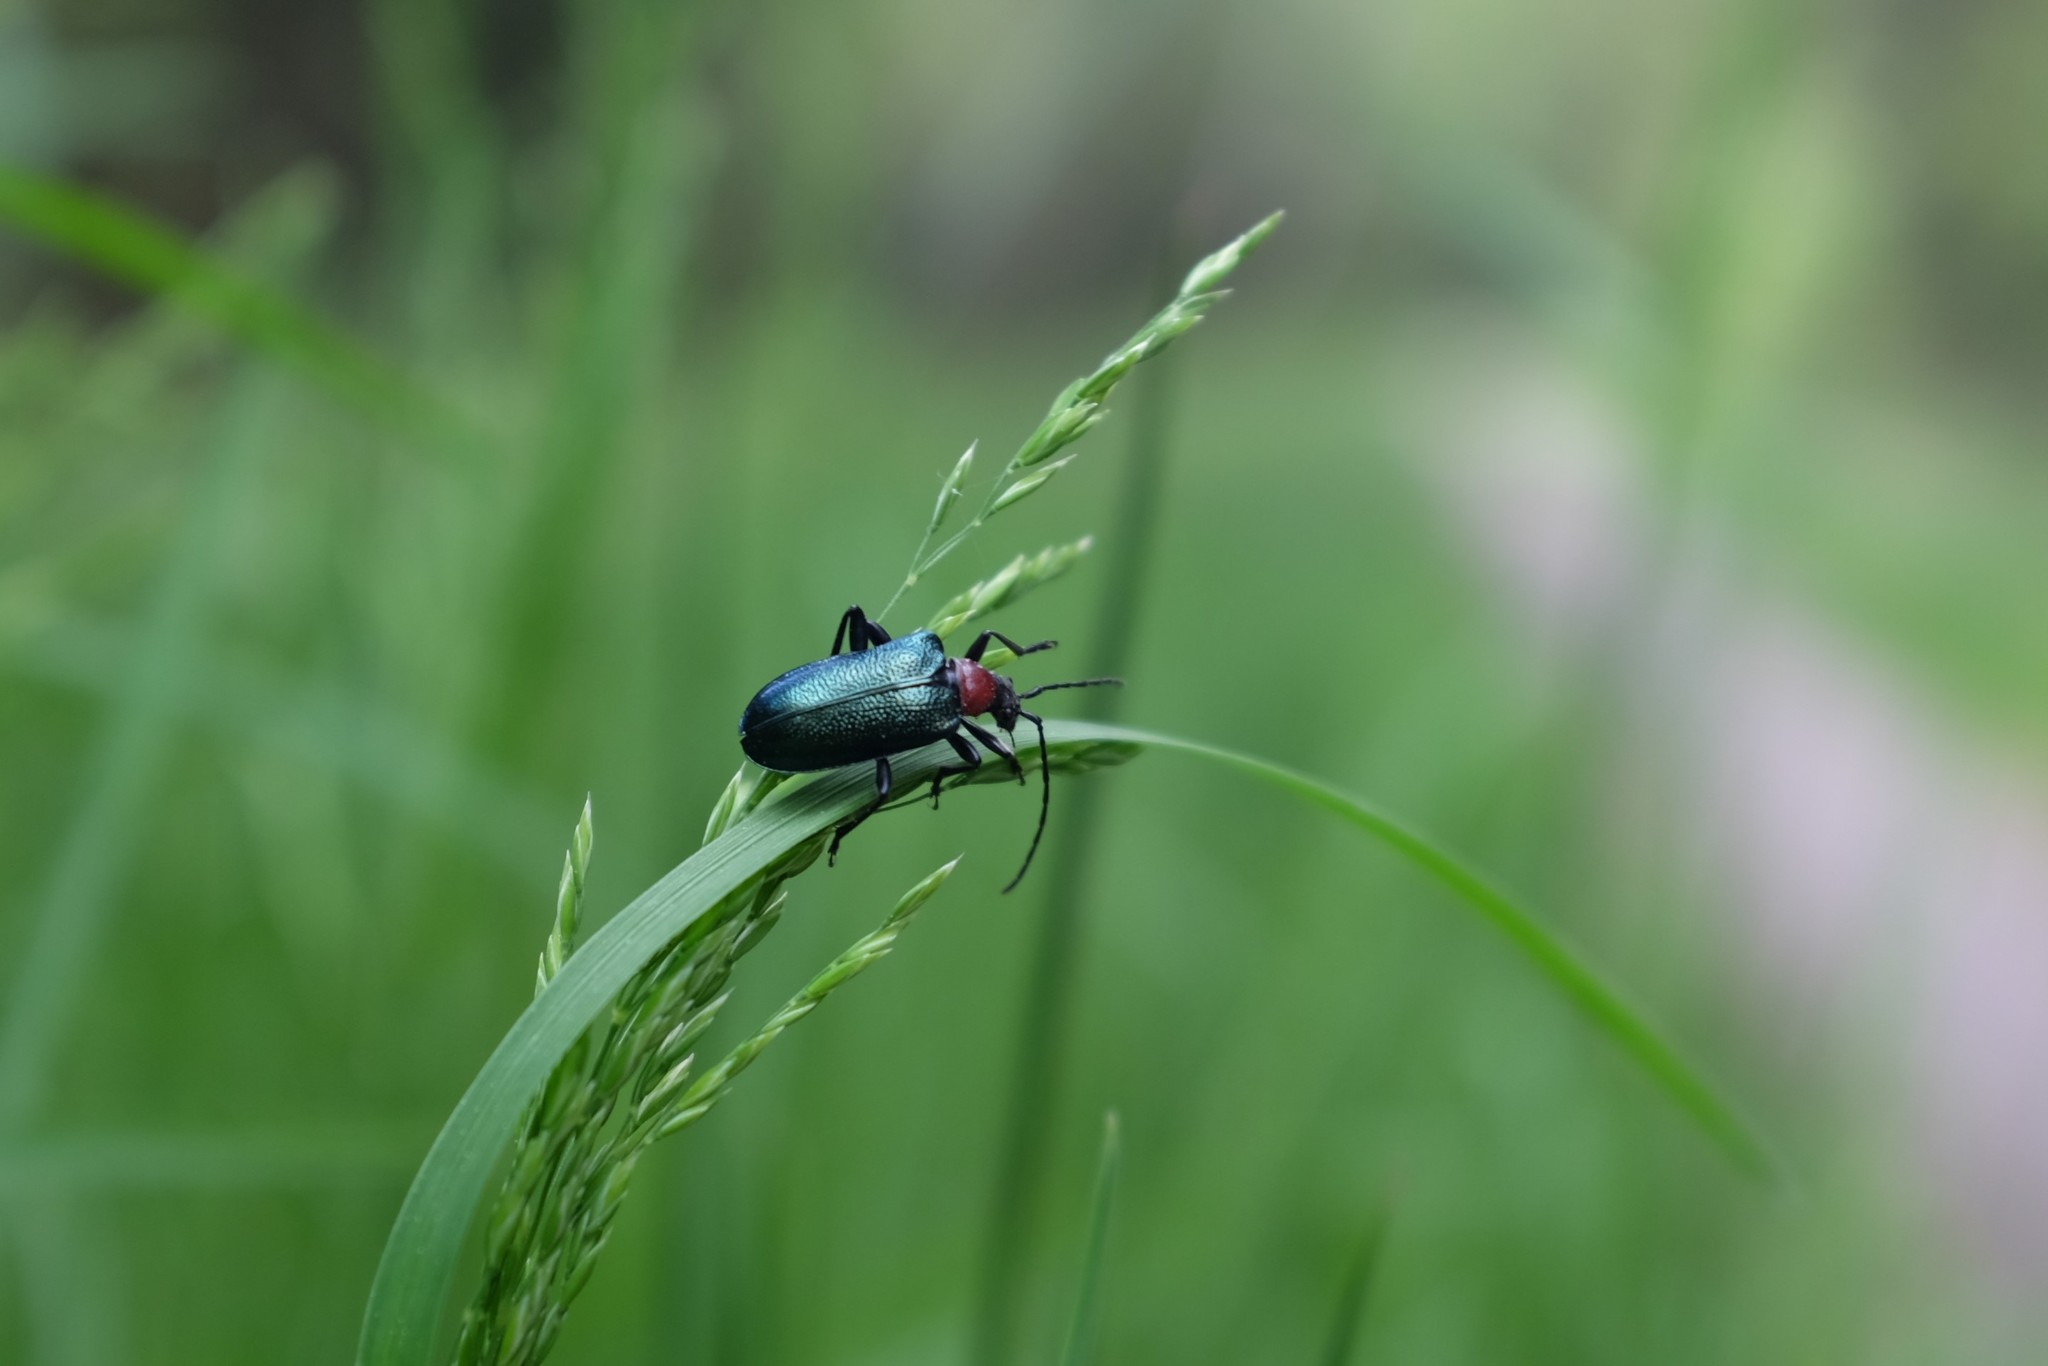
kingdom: Animalia
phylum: Arthropoda
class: Insecta
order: Coleoptera
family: Cerambycidae
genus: Gaurotes
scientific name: Gaurotes virginea
